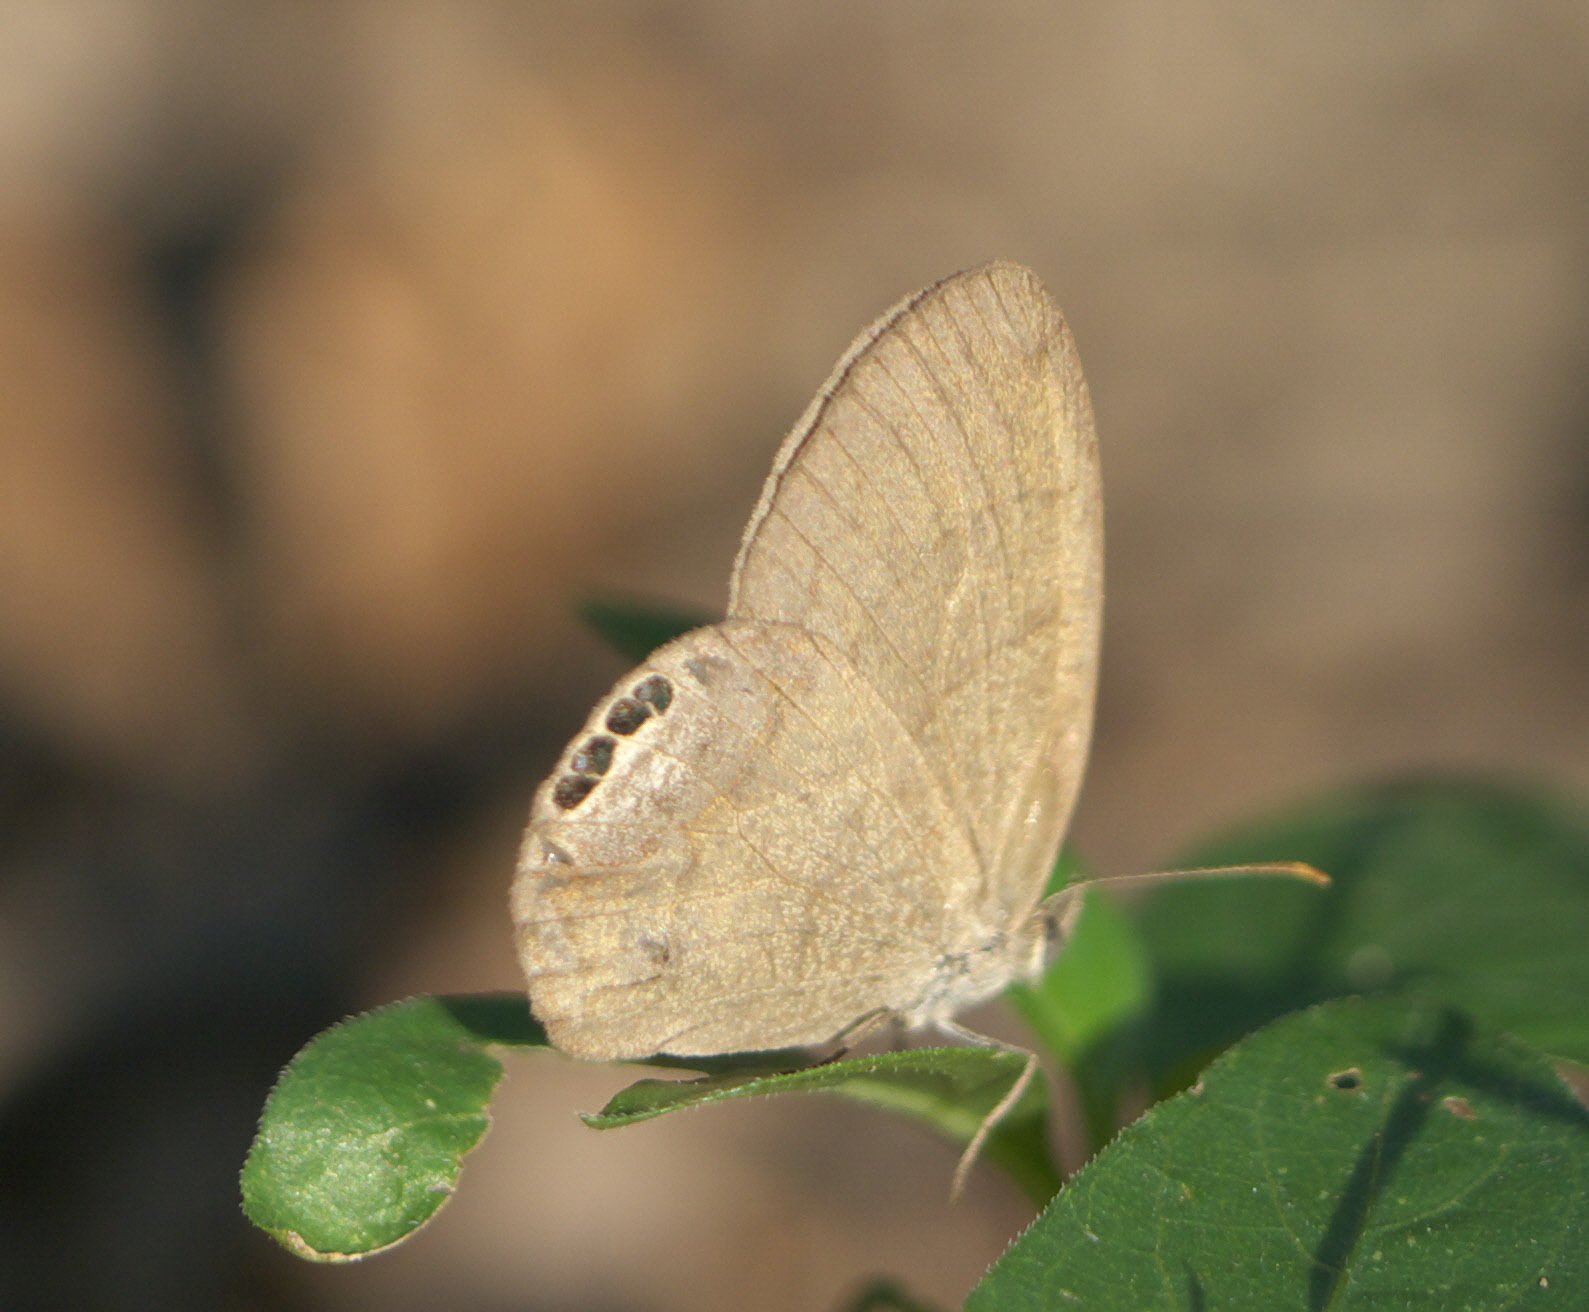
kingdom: Animalia
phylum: Arthropoda
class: Insecta
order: Lepidoptera
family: Nymphalidae
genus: Euptychia
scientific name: Euptychia cornelius
